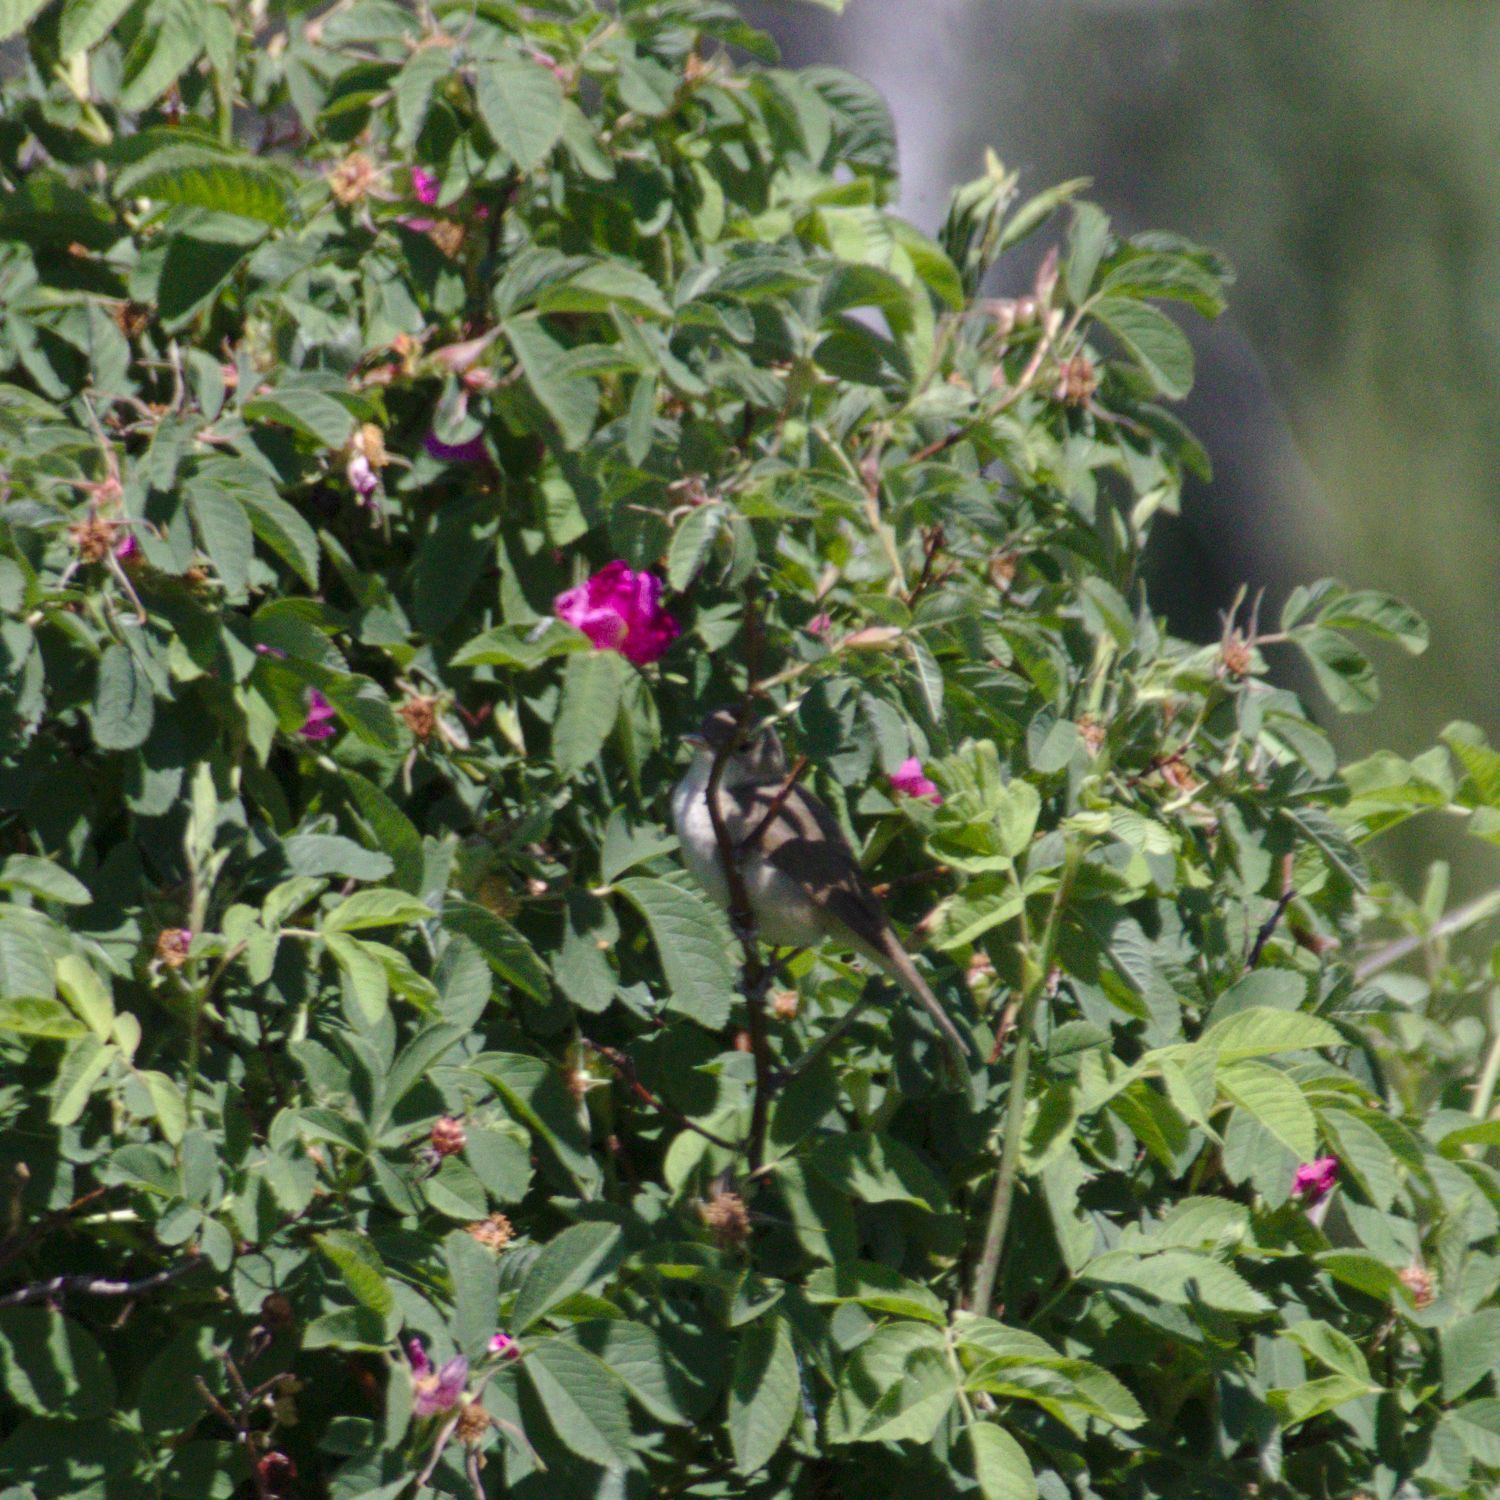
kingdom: Animalia
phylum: Chordata
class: Aves
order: Passeriformes
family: Acrocephalidae
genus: Acrocephalus
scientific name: Acrocephalus dumetorum
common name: Blyth's reed warbler
